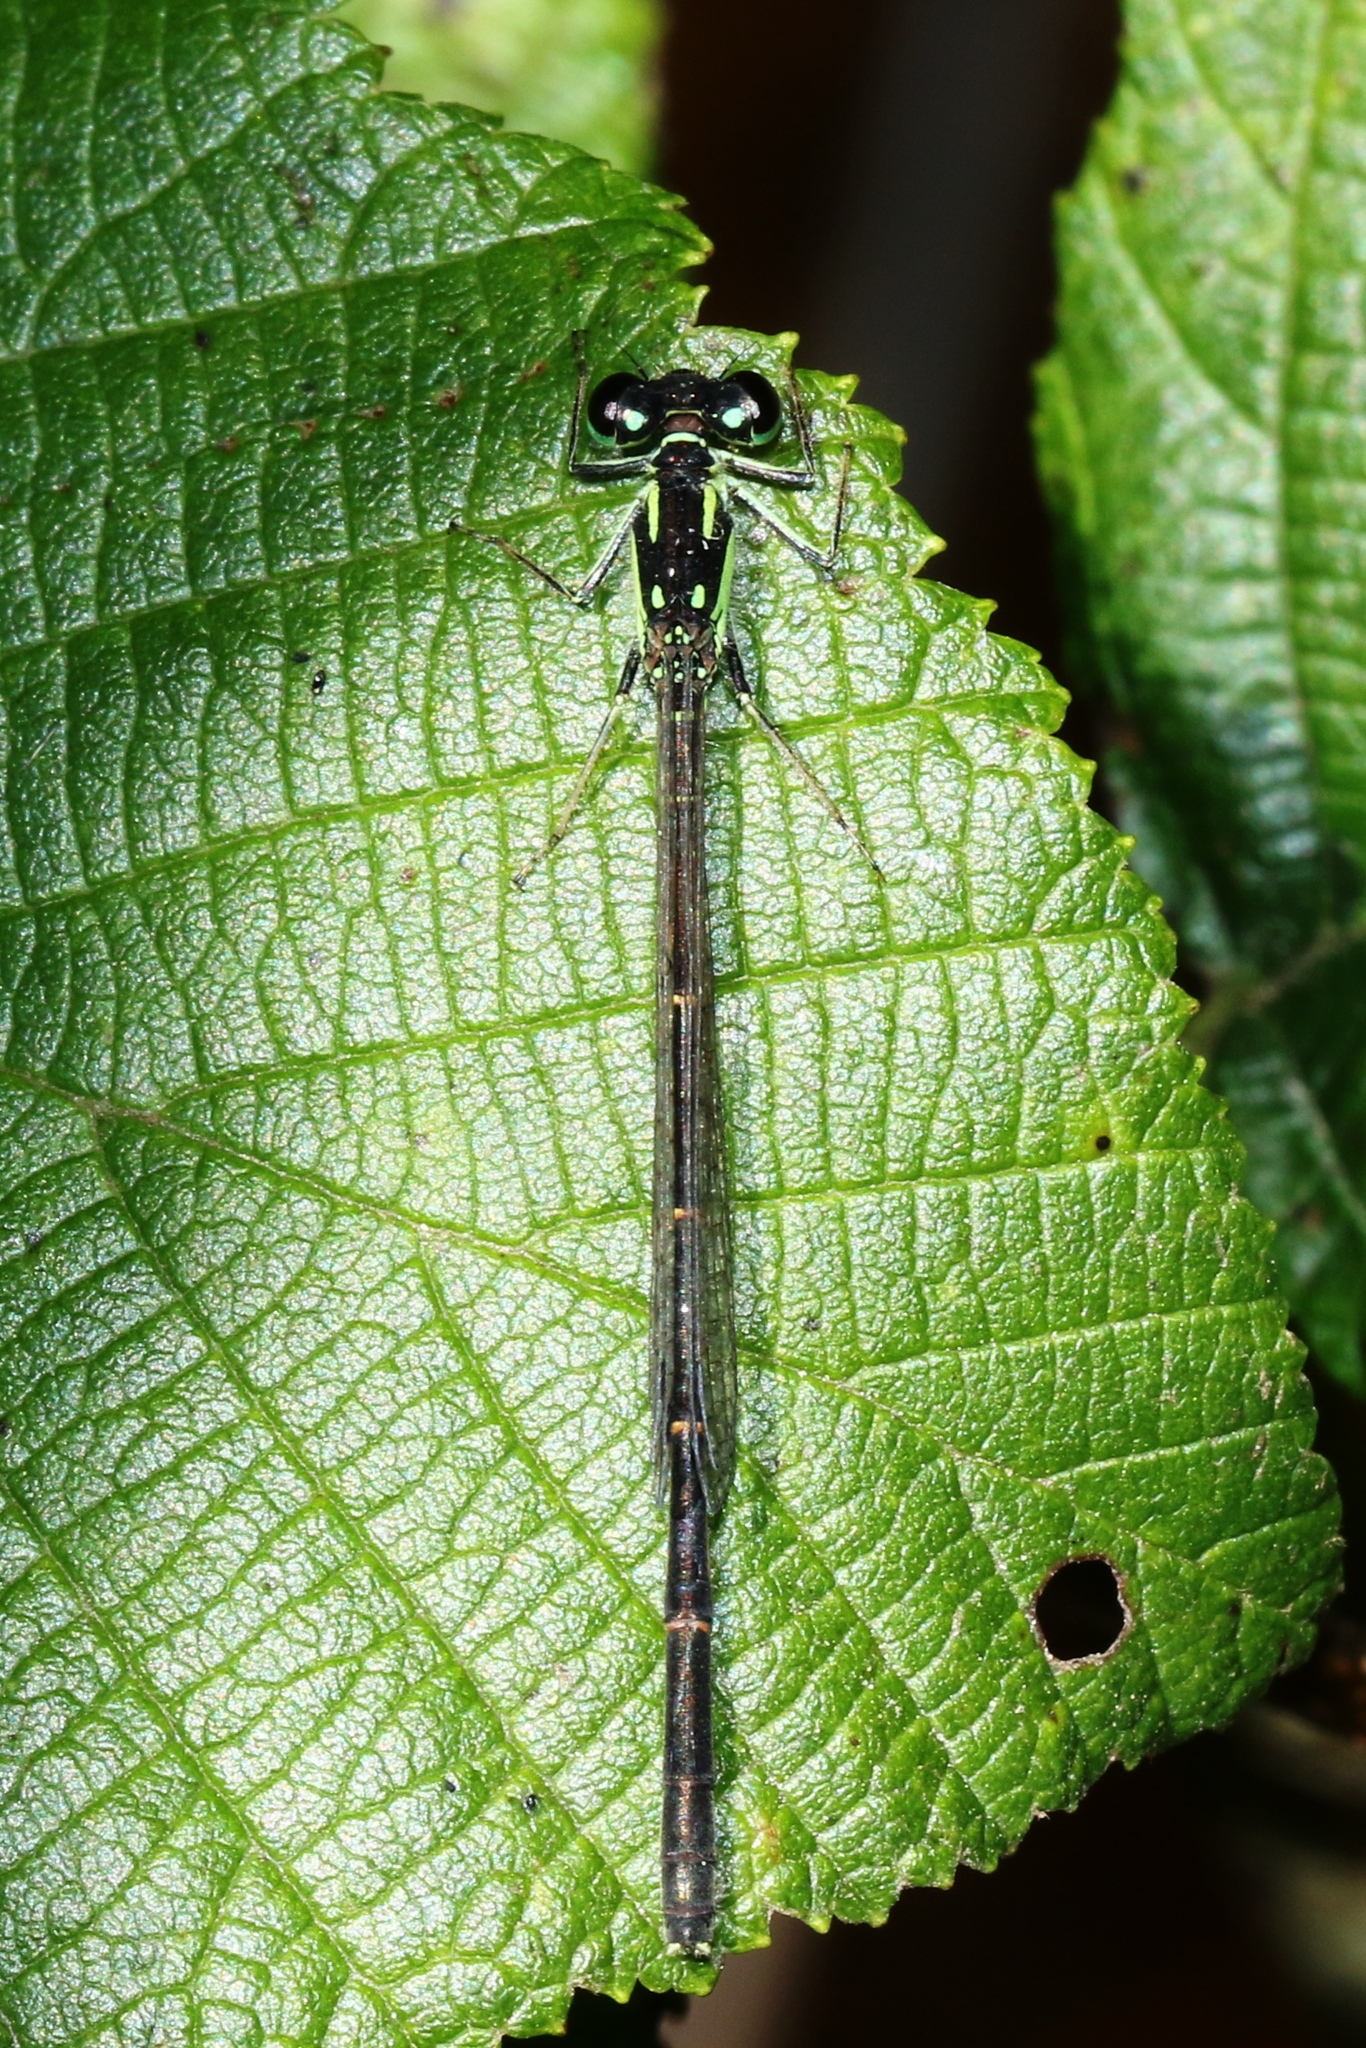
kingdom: Animalia
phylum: Arthropoda
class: Insecta
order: Odonata
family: Coenagrionidae
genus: Ischnura
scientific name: Ischnura posita
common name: Fragile forktail
